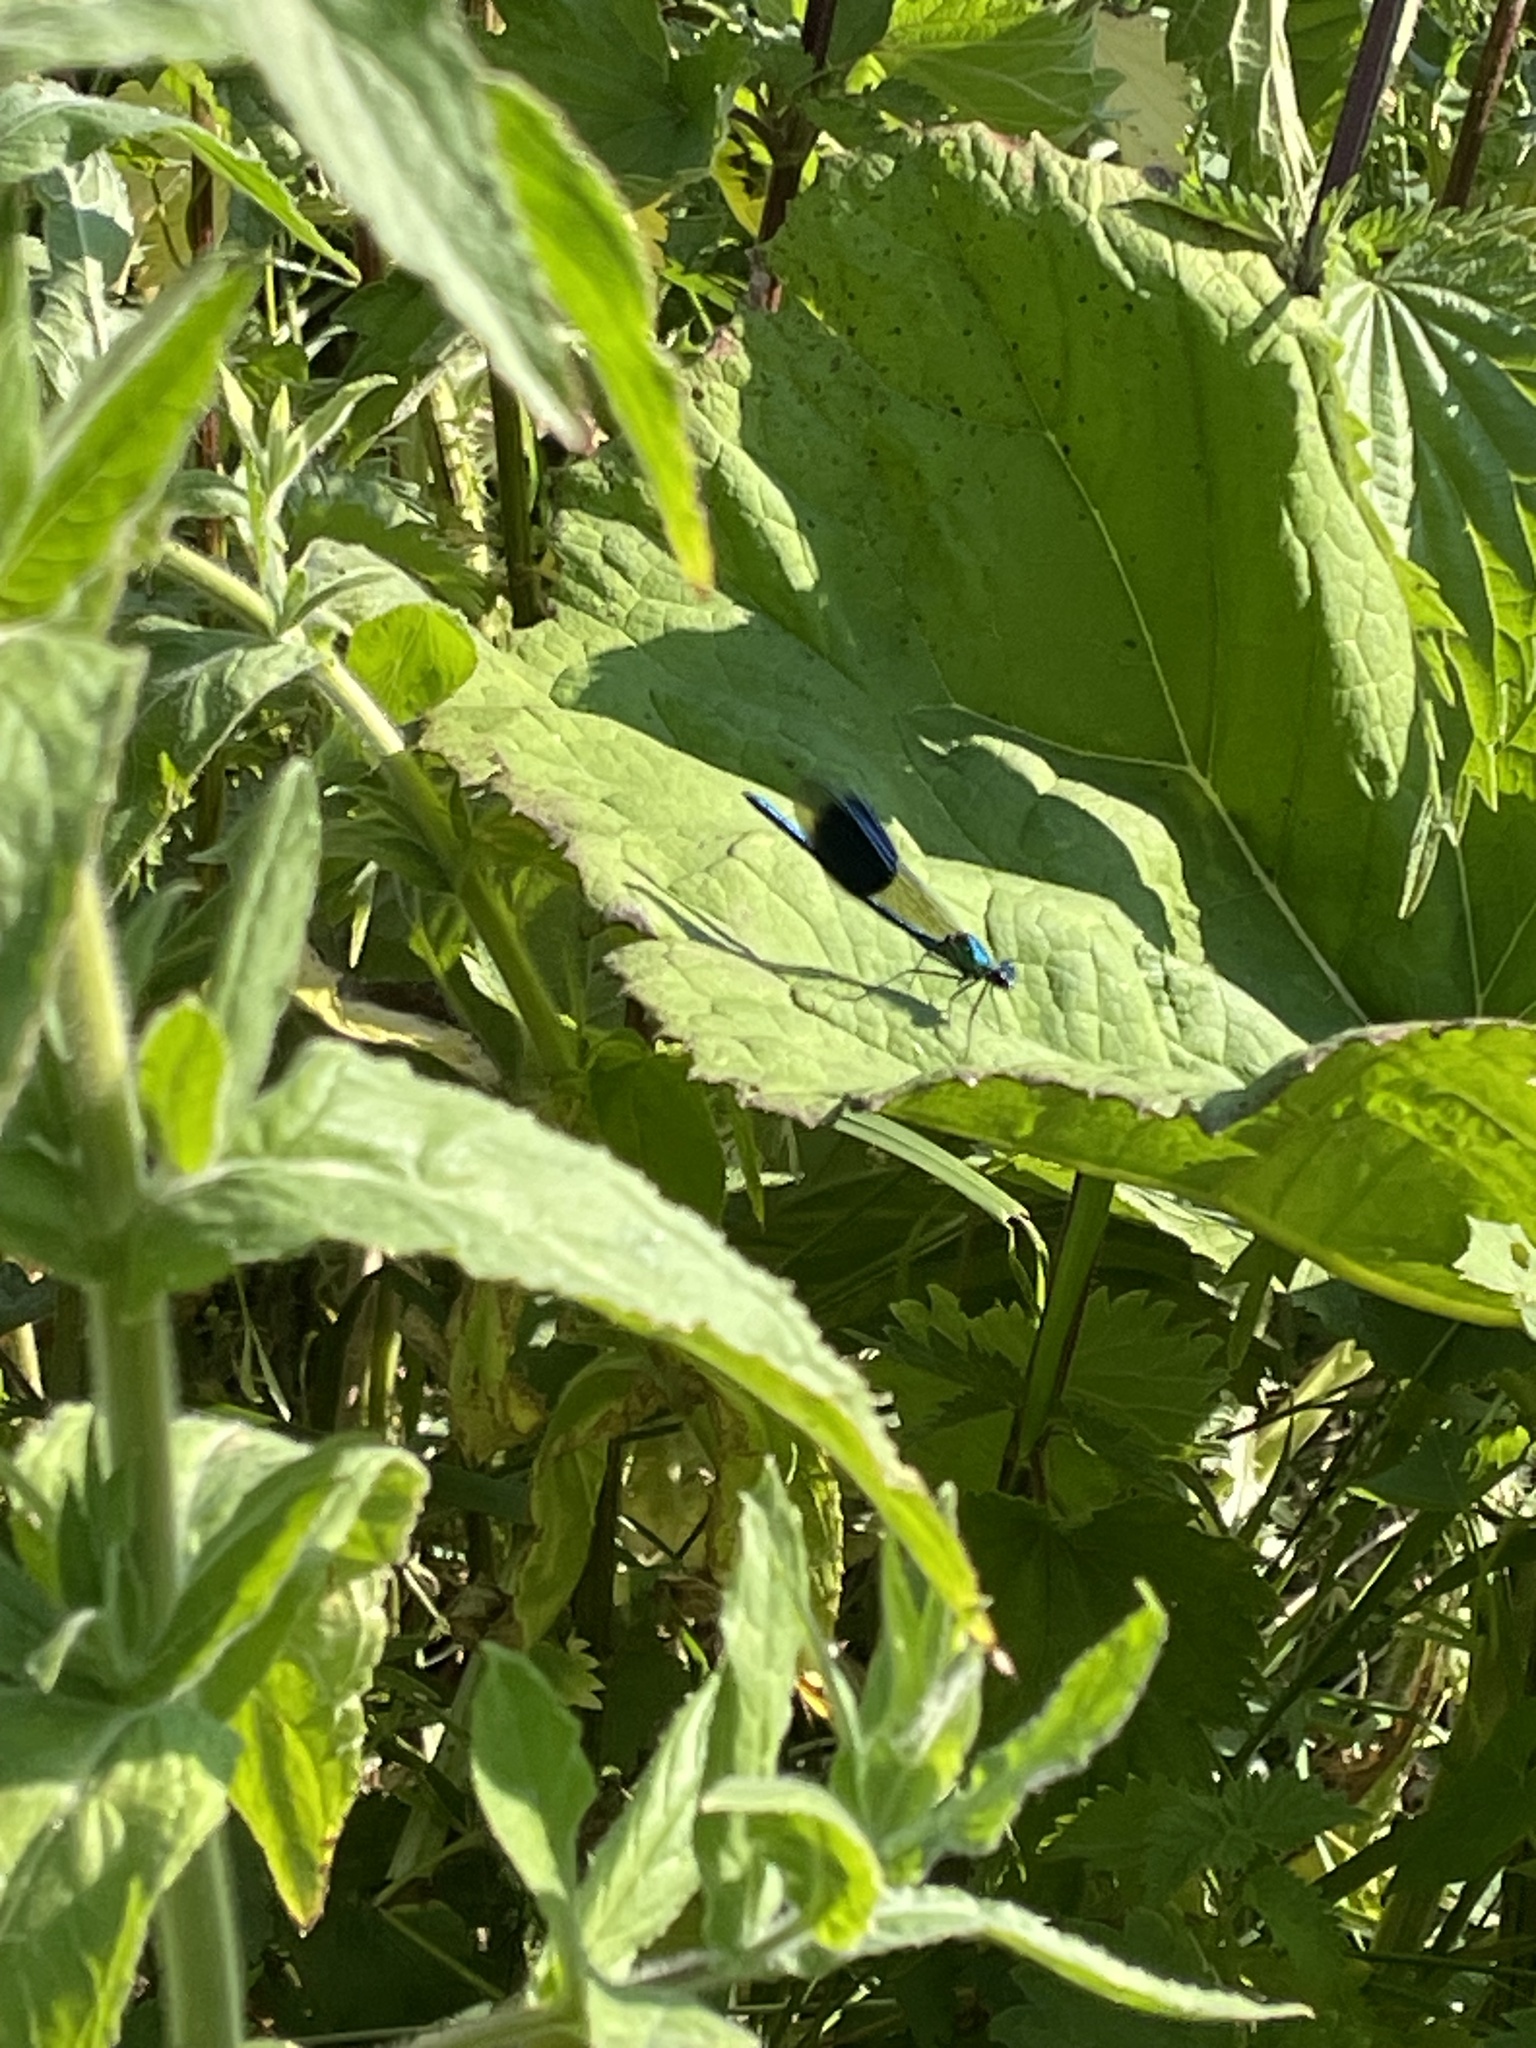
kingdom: Animalia
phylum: Arthropoda
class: Insecta
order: Odonata
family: Calopterygidae
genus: Calopteryx
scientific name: Calopteryx splendens
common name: Banded demoiselle
